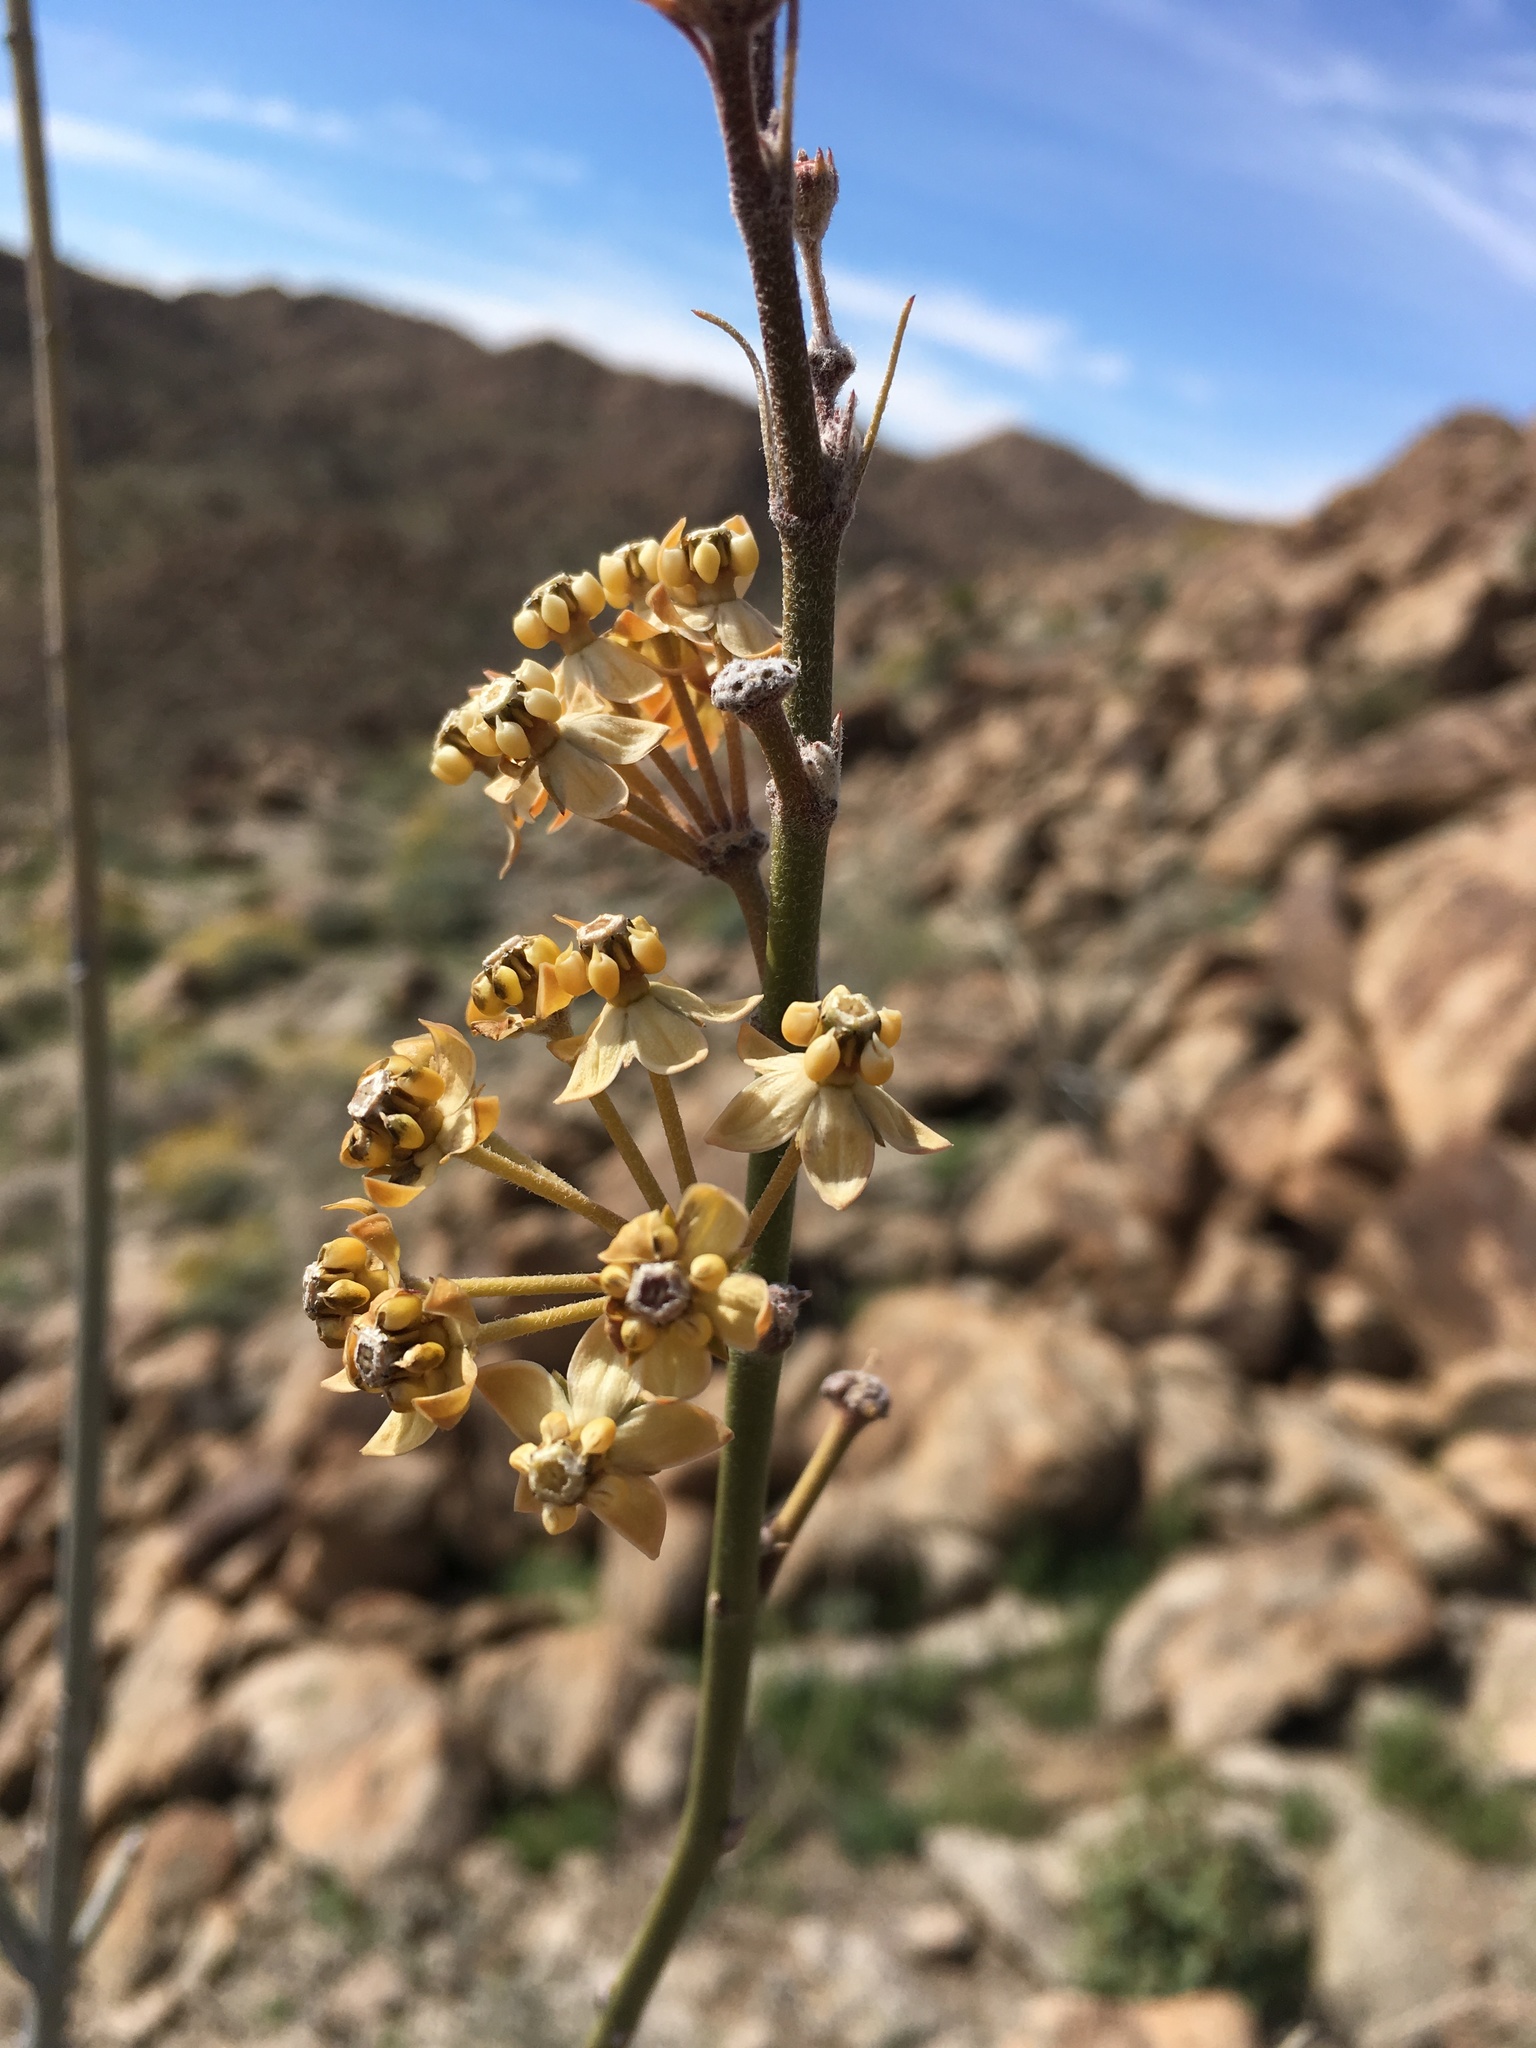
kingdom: Plantae
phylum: Tracheophyta
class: Magnoliopsida
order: Gentianales
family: Apocynaceae
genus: Asclepias
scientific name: Asclepias albicans
